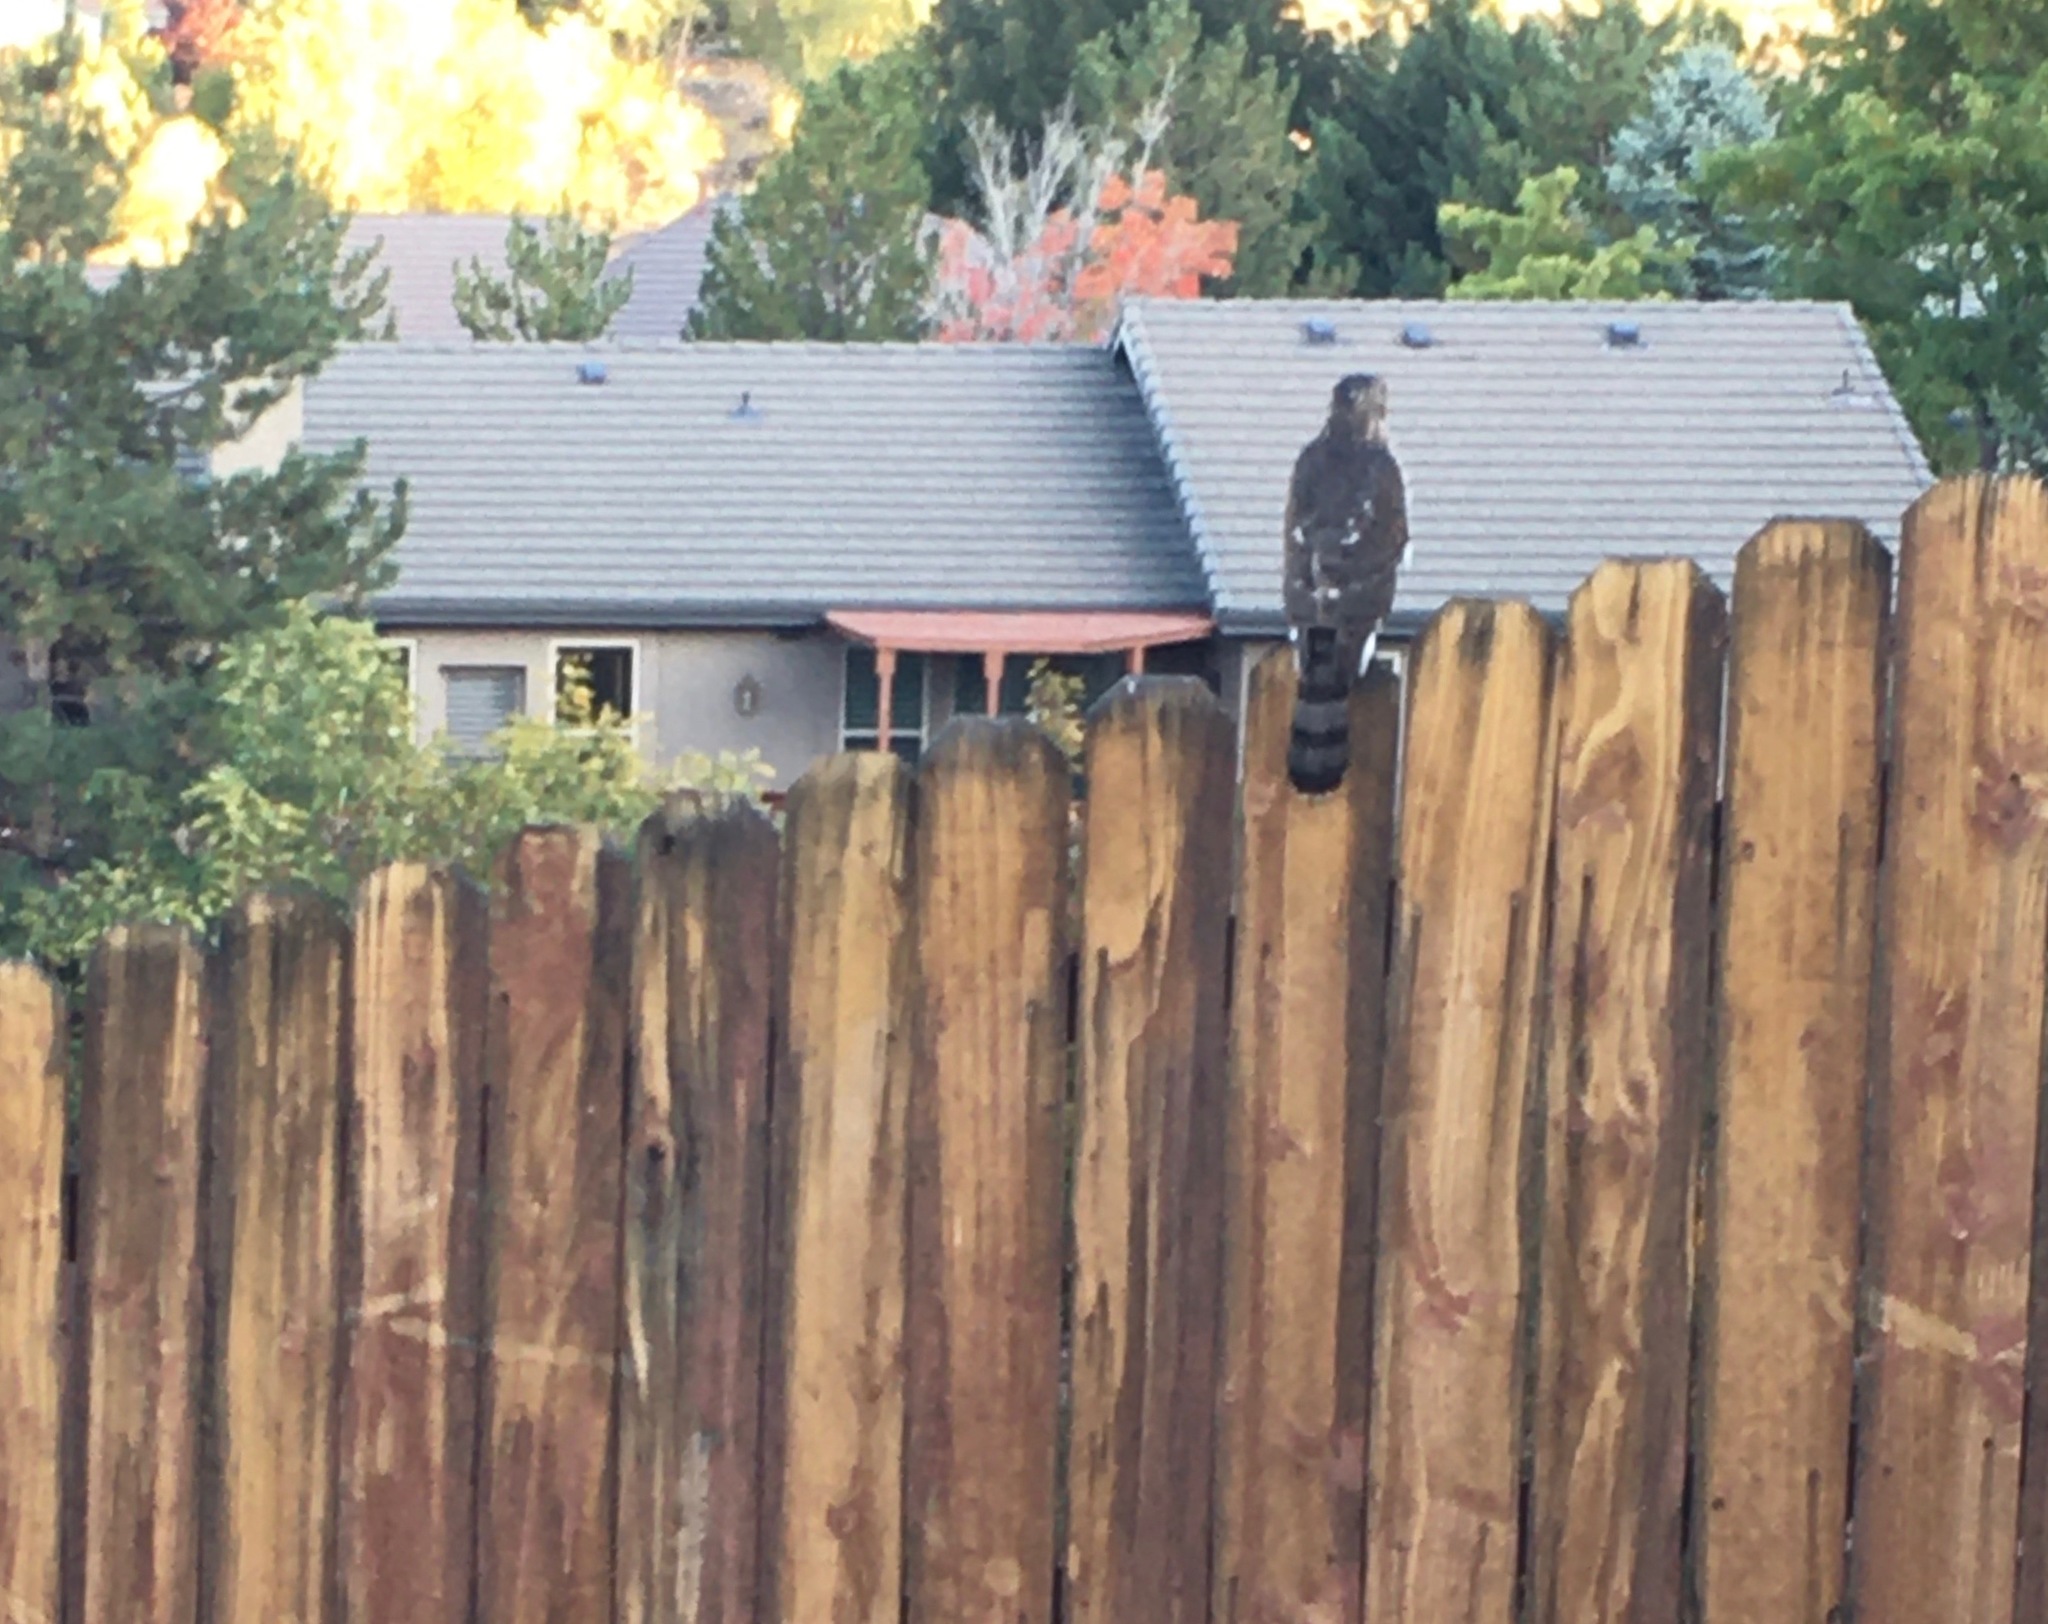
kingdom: Animalia
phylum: Chordata
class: Aves
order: Accipitriformes
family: Accipitridae
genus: Accipiter
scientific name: Accipiter cooperii
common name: Cooper's hawk
